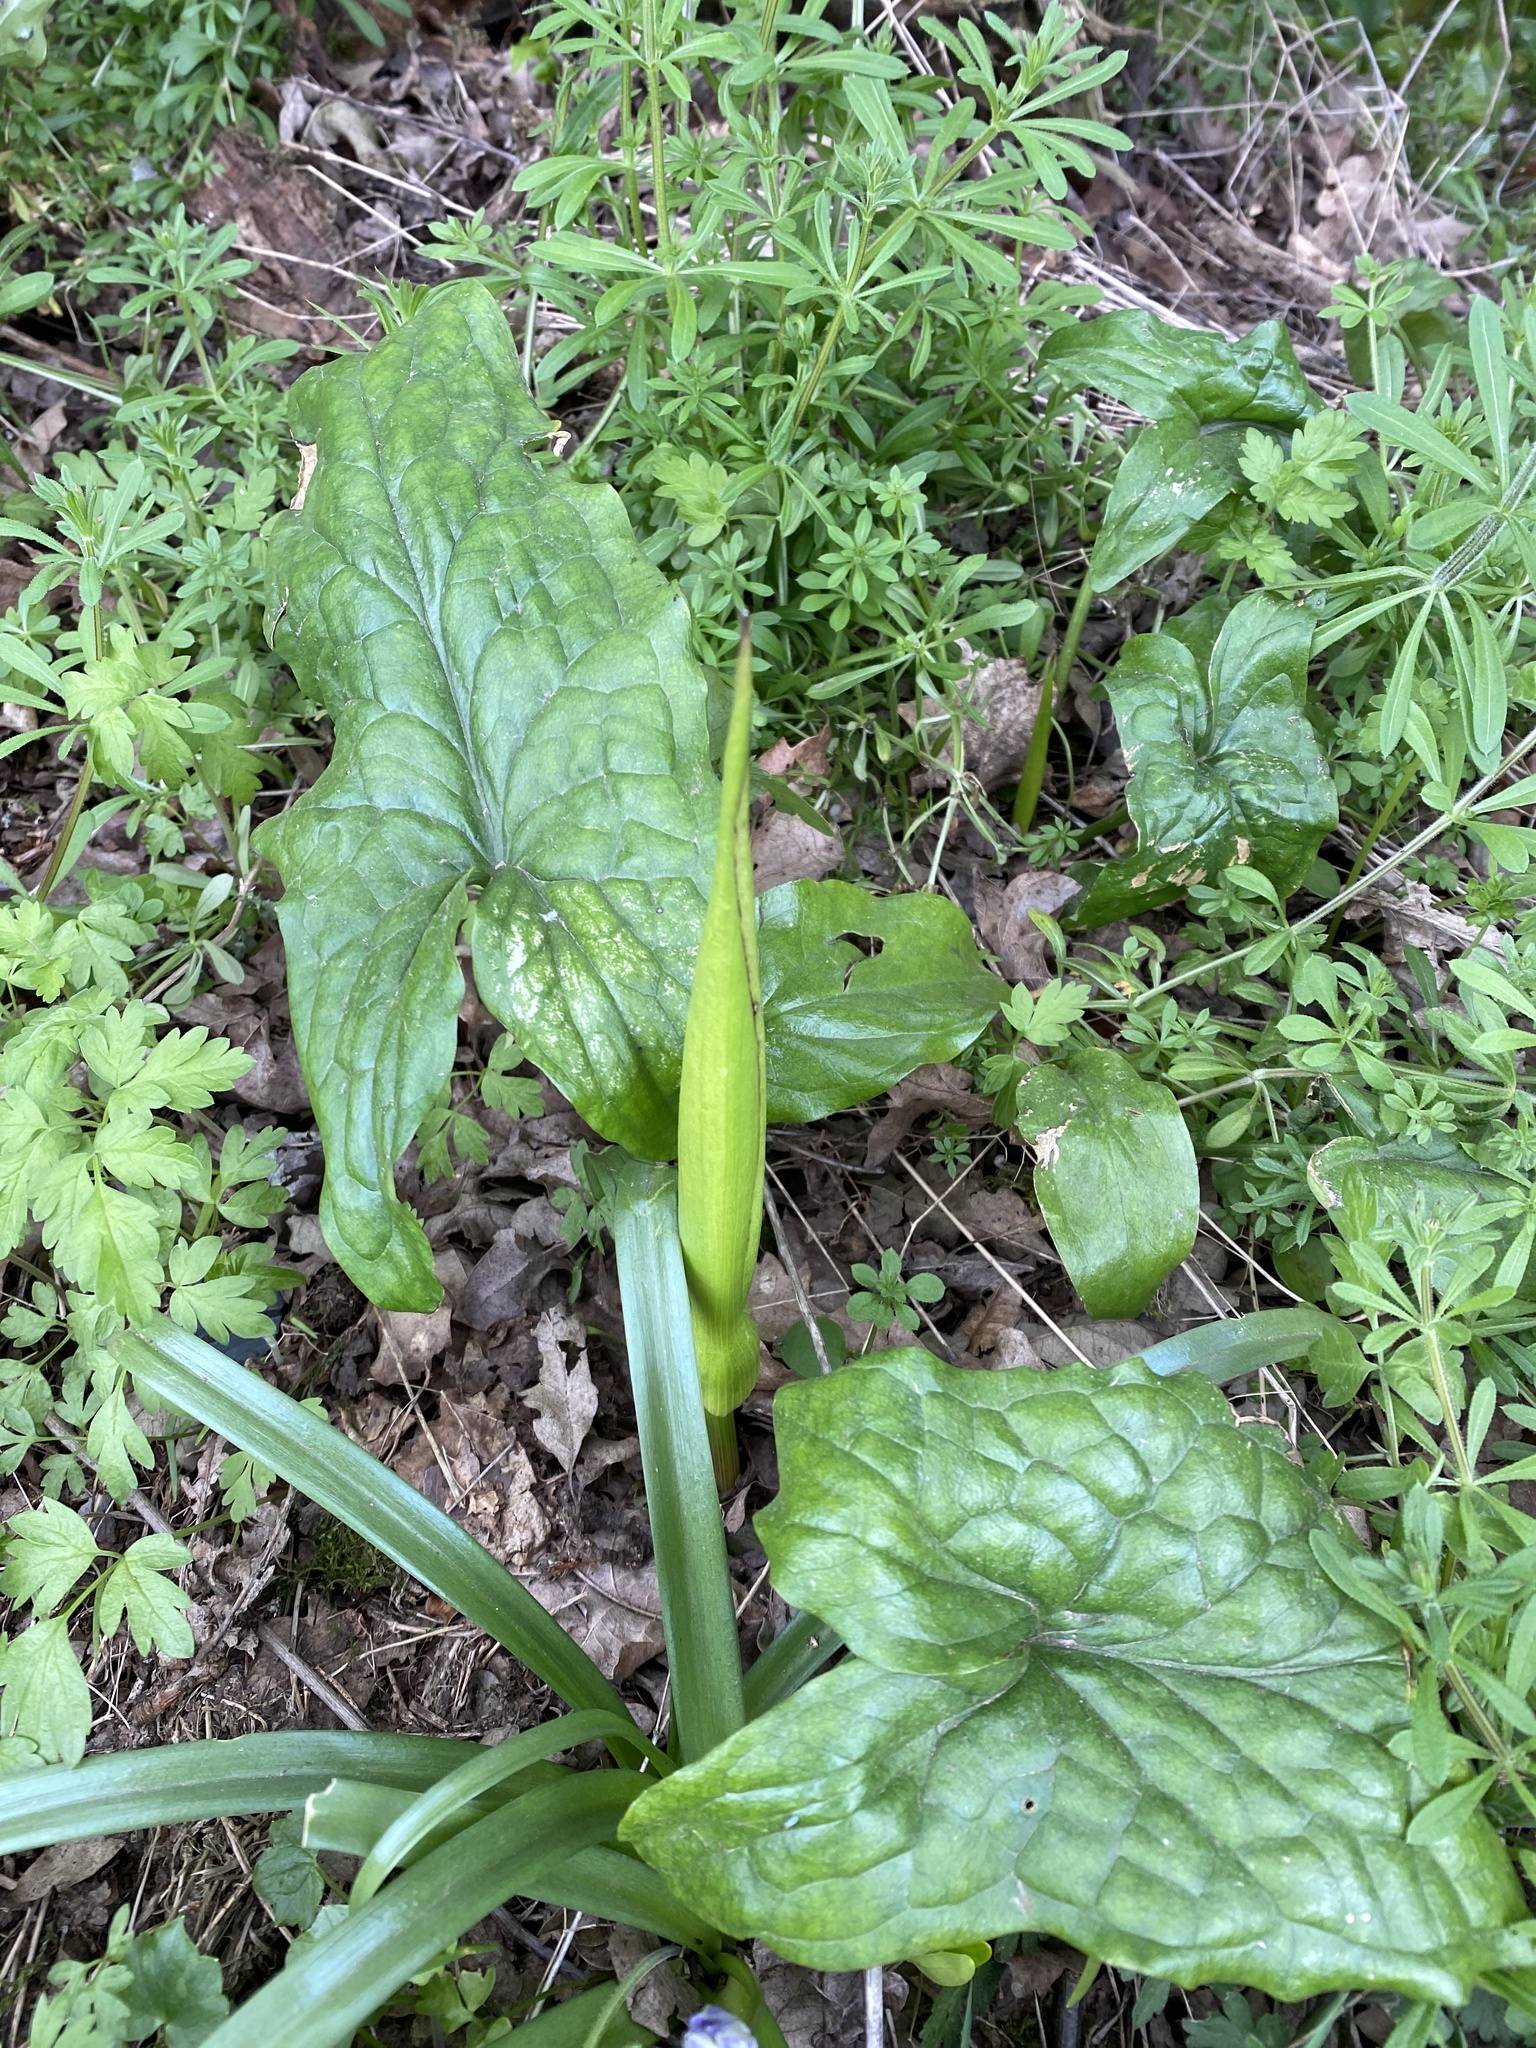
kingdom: Plantae
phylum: Tracheophyta
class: Liliopsida
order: Alismatales
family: Araceae
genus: Arum
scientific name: Arum maculatum
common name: Lords-and-ladies
